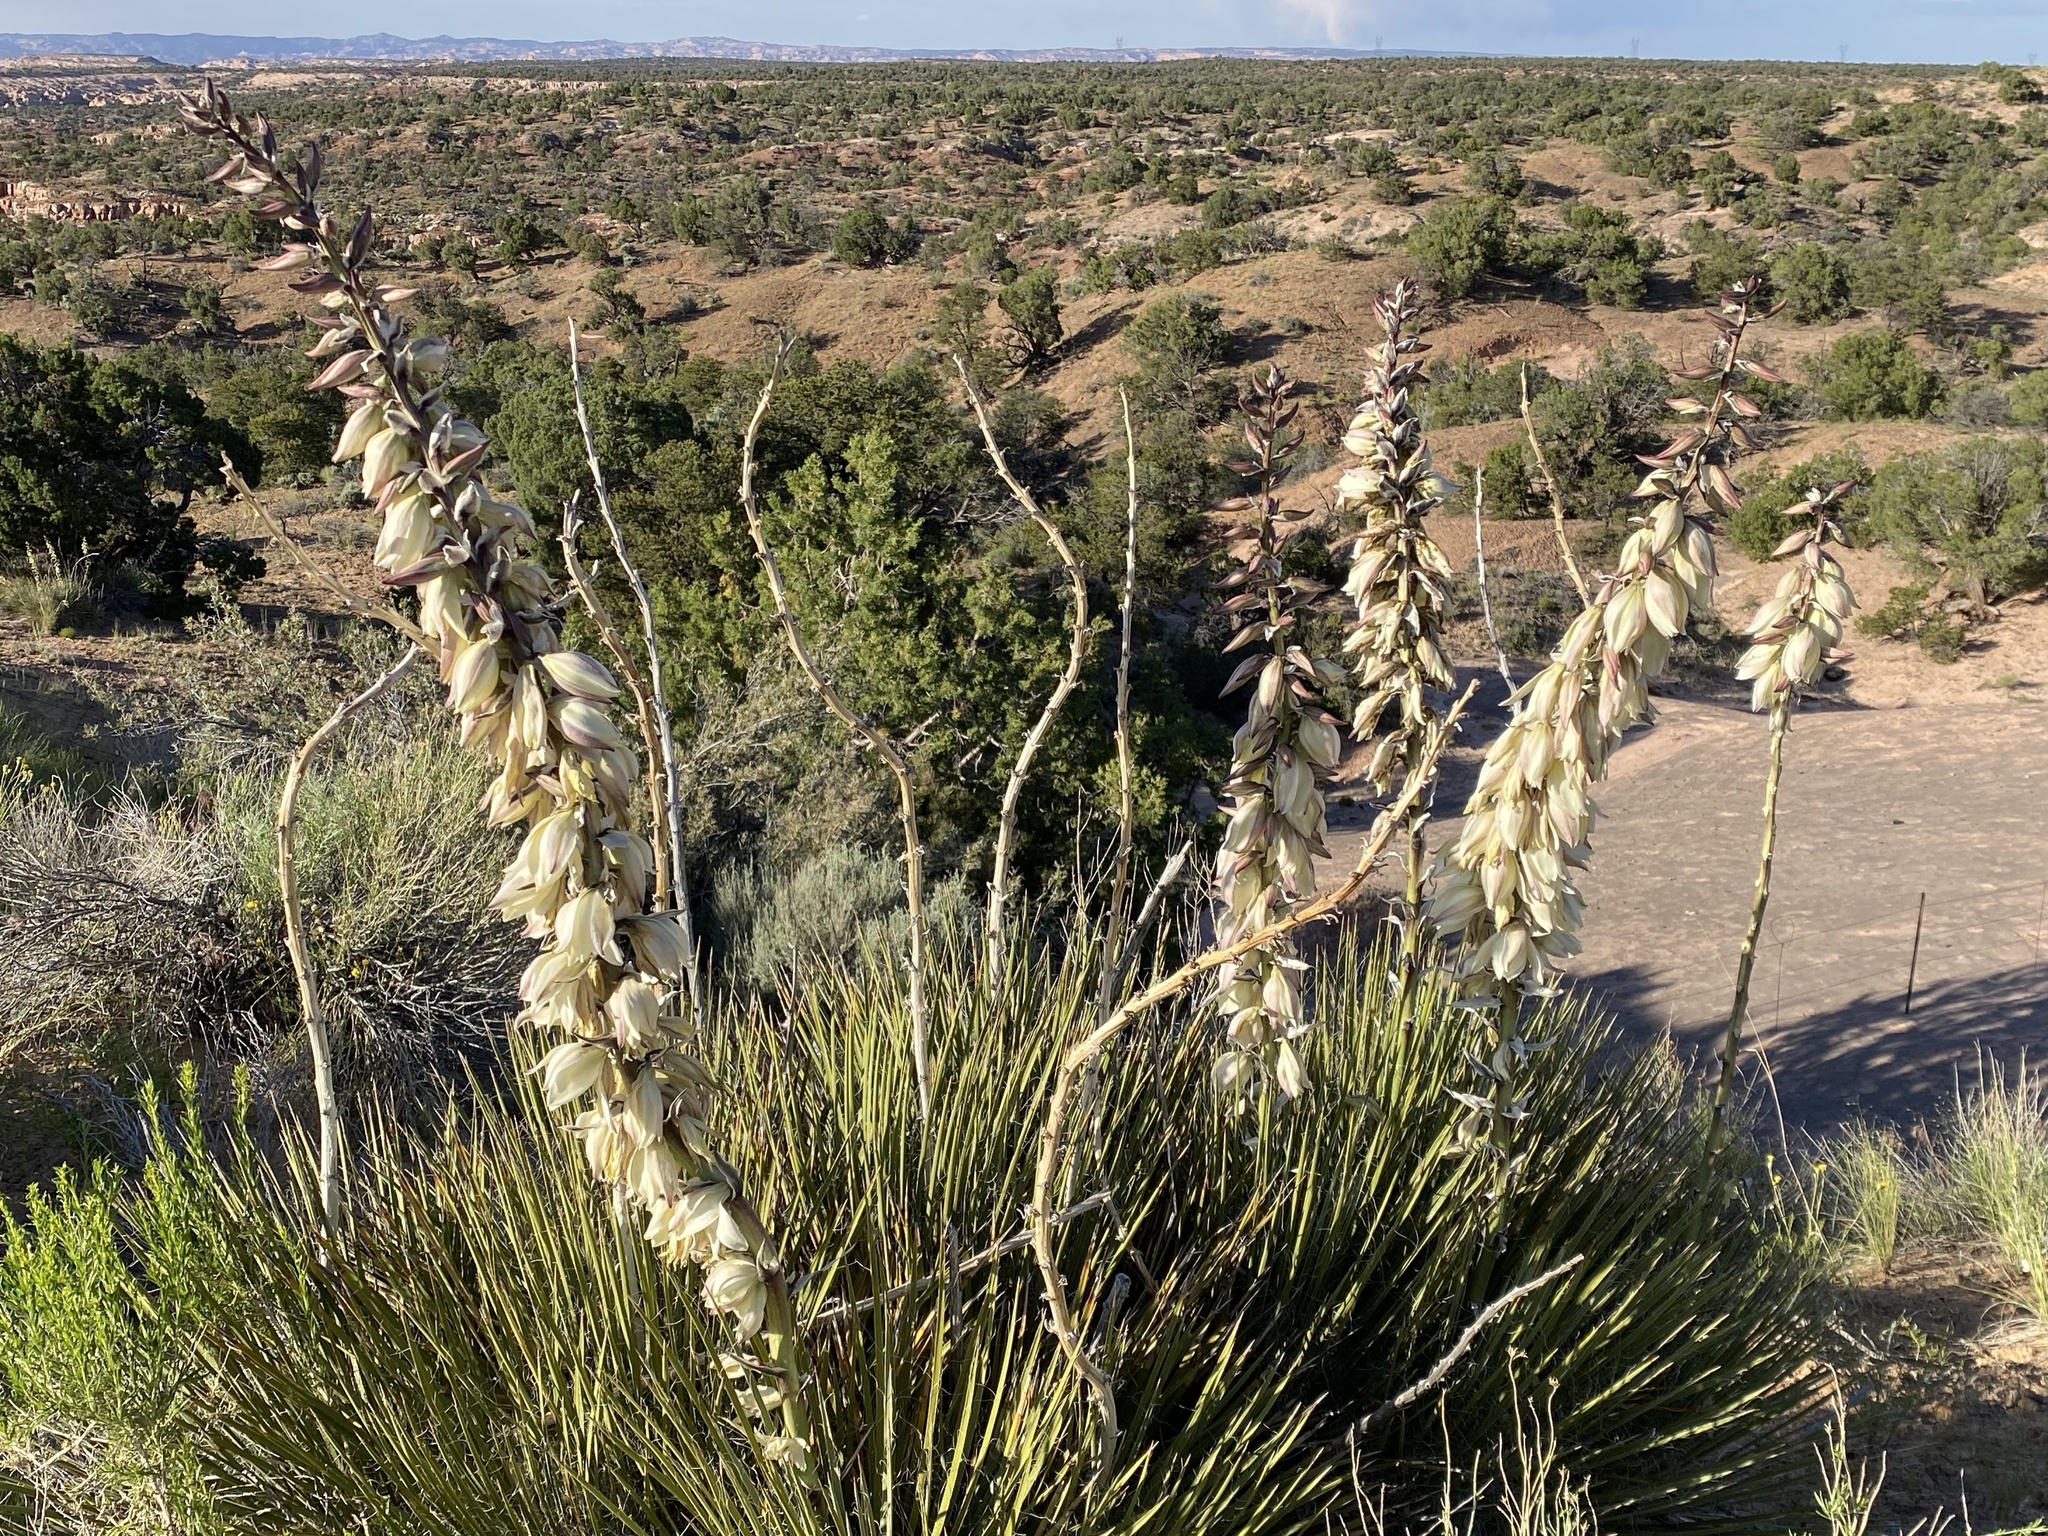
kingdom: Plantae
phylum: Tracheophyta
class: Liliopsida
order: Asparagales
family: Asparagaceae
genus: Yucca
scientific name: Yucca baileyi
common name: Alpine yucca
